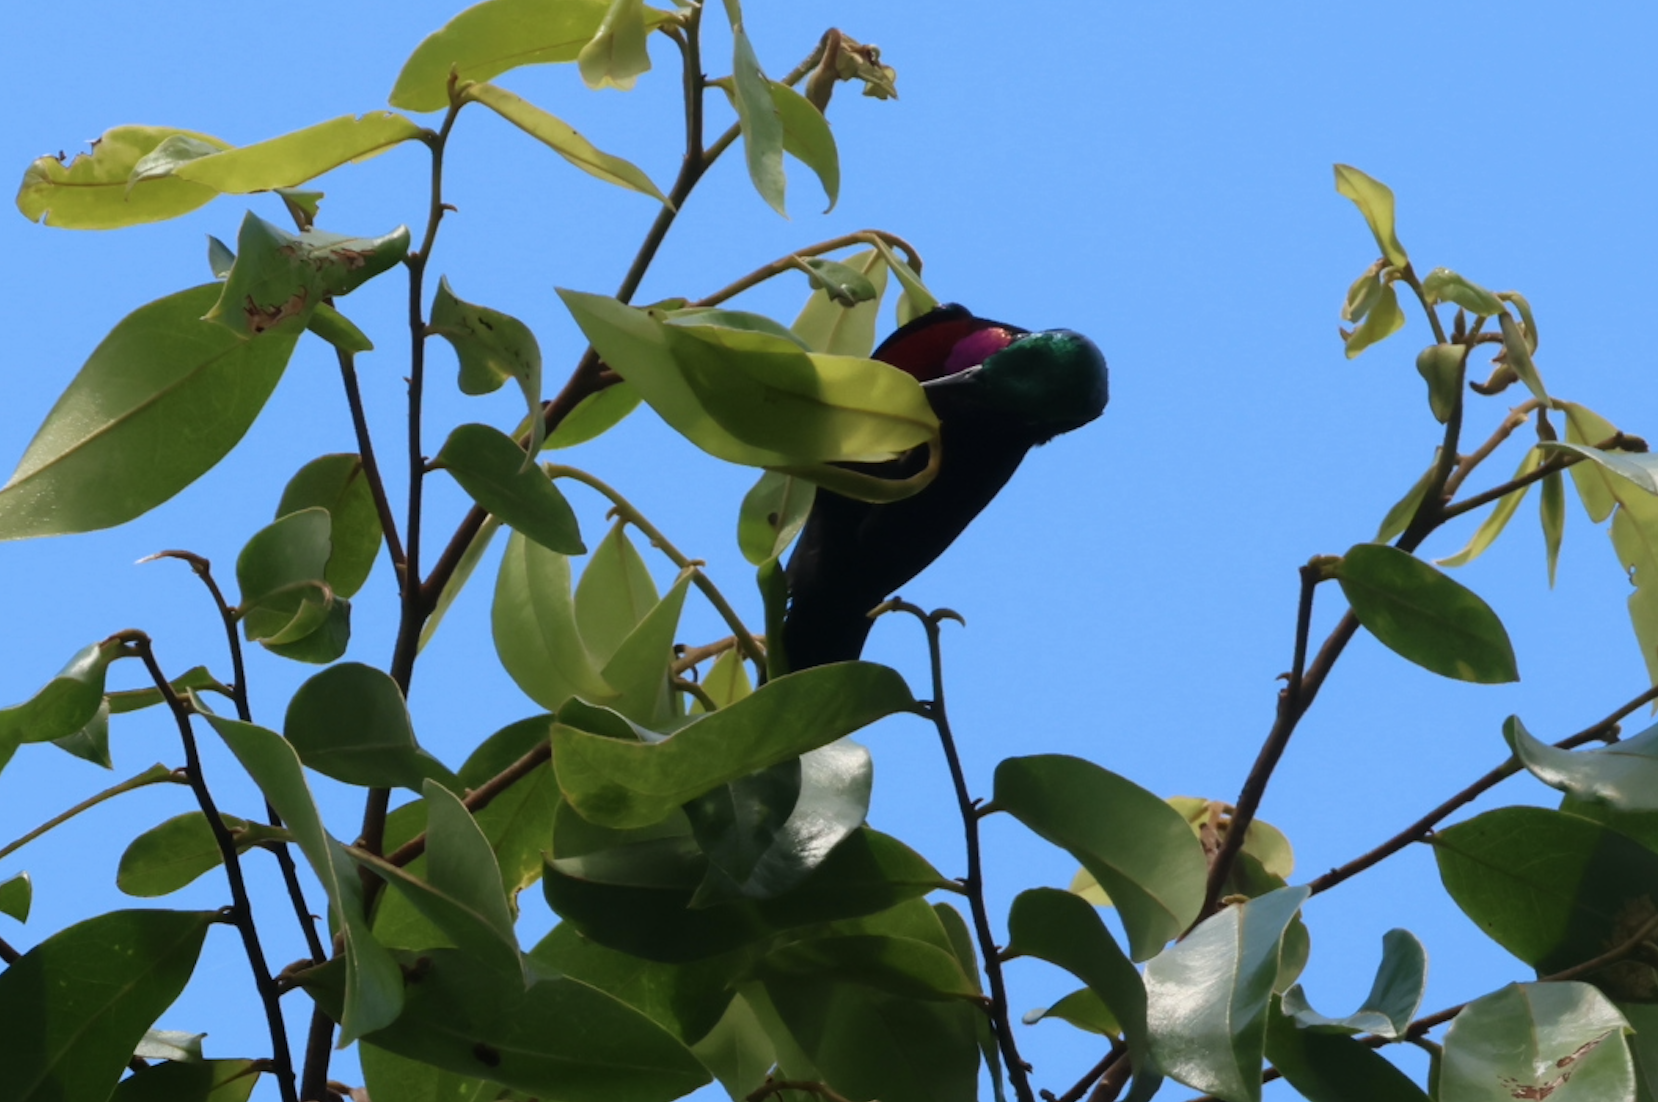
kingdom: Animalia
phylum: Chordata
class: Aves
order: Passeriformes
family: Nectariniidae
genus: Leptocoma
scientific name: Leptocoma brasiliana
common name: Van hasselt's sunbird
